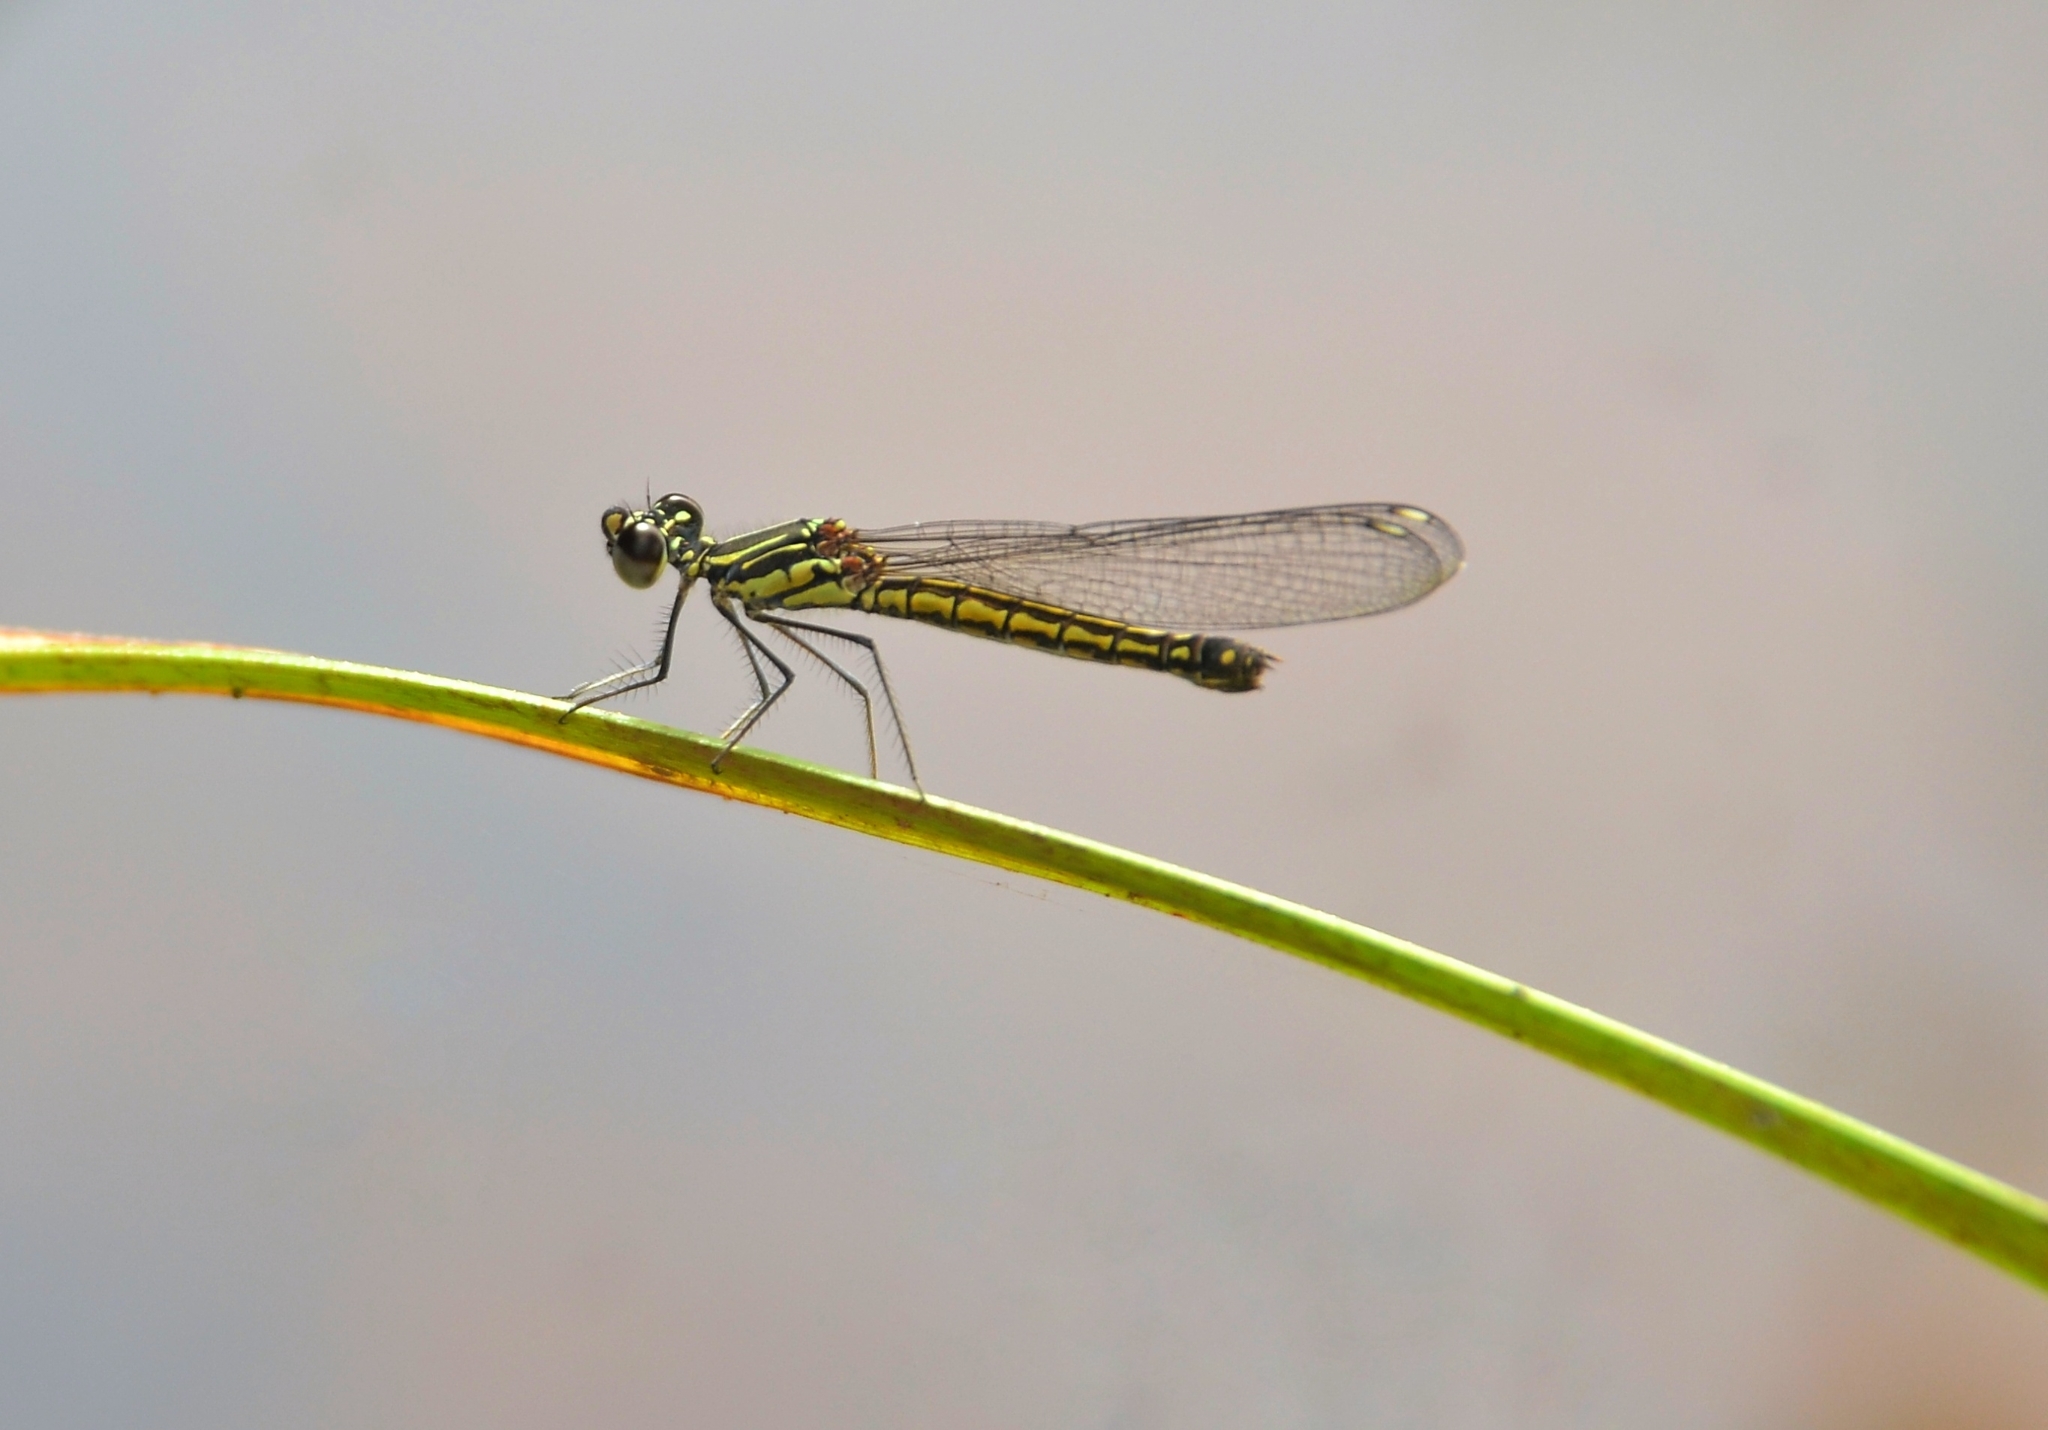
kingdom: Animalia
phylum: Arthropoda
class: Insecta
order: Odonata
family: Chlorocyphidae
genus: Libellago
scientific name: Libellago indica
